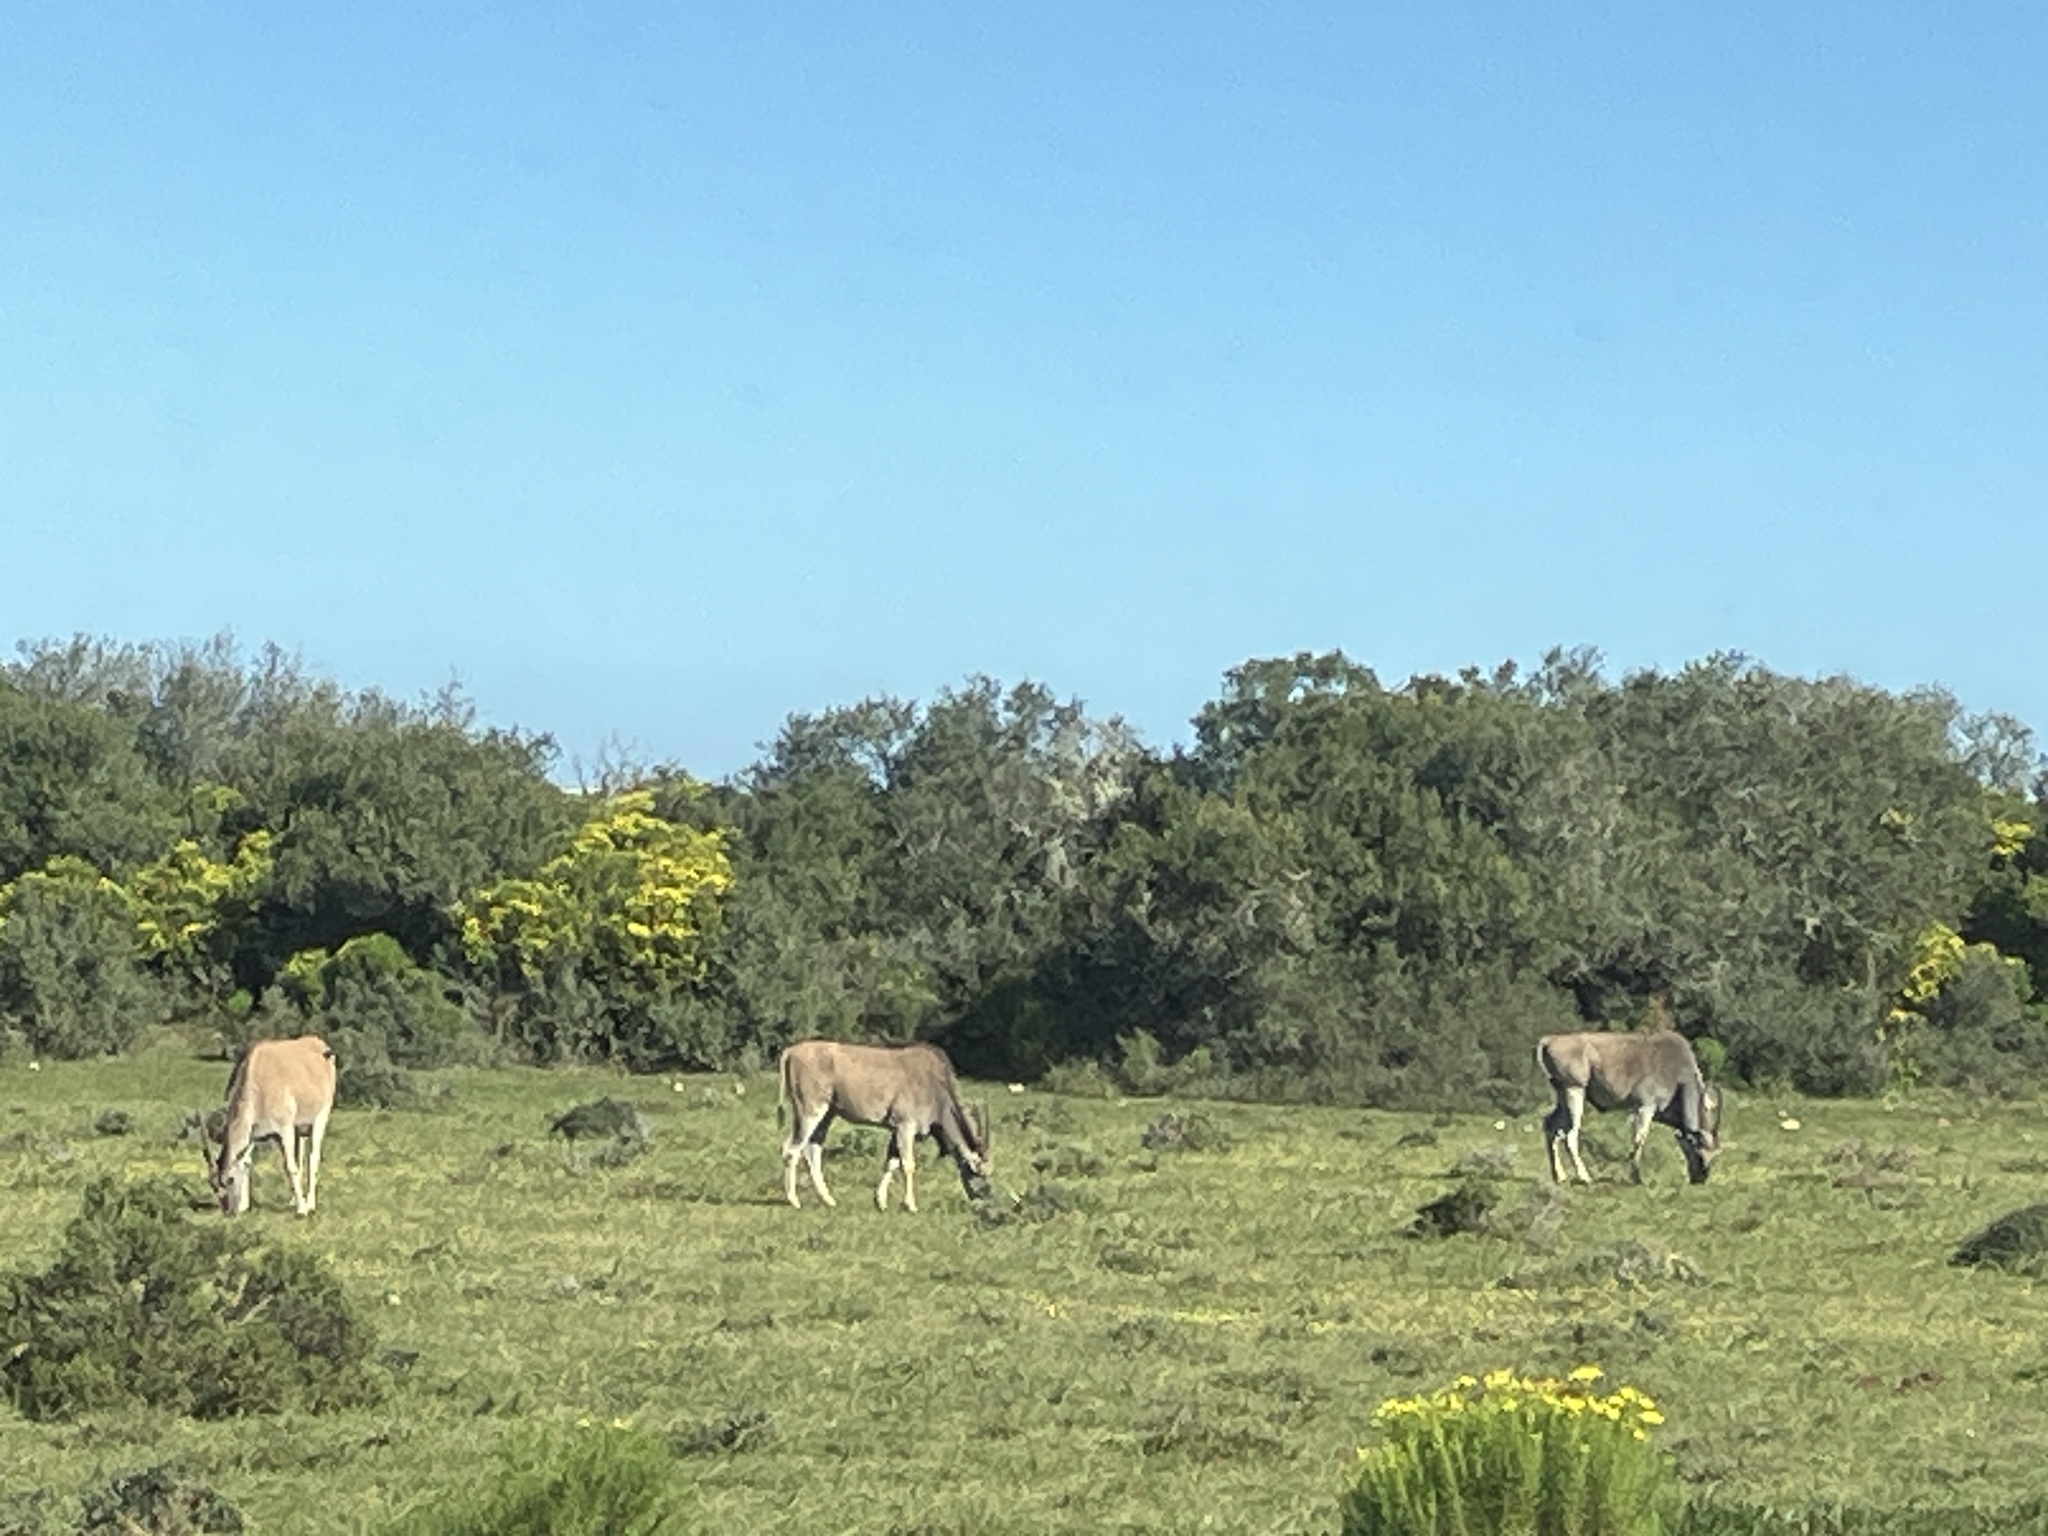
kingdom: Animalia
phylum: Chordata
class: Mammalia
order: Artiodactyla
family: Bovidae
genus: Taurotragus
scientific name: Taurotragus oryx
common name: Common eland
